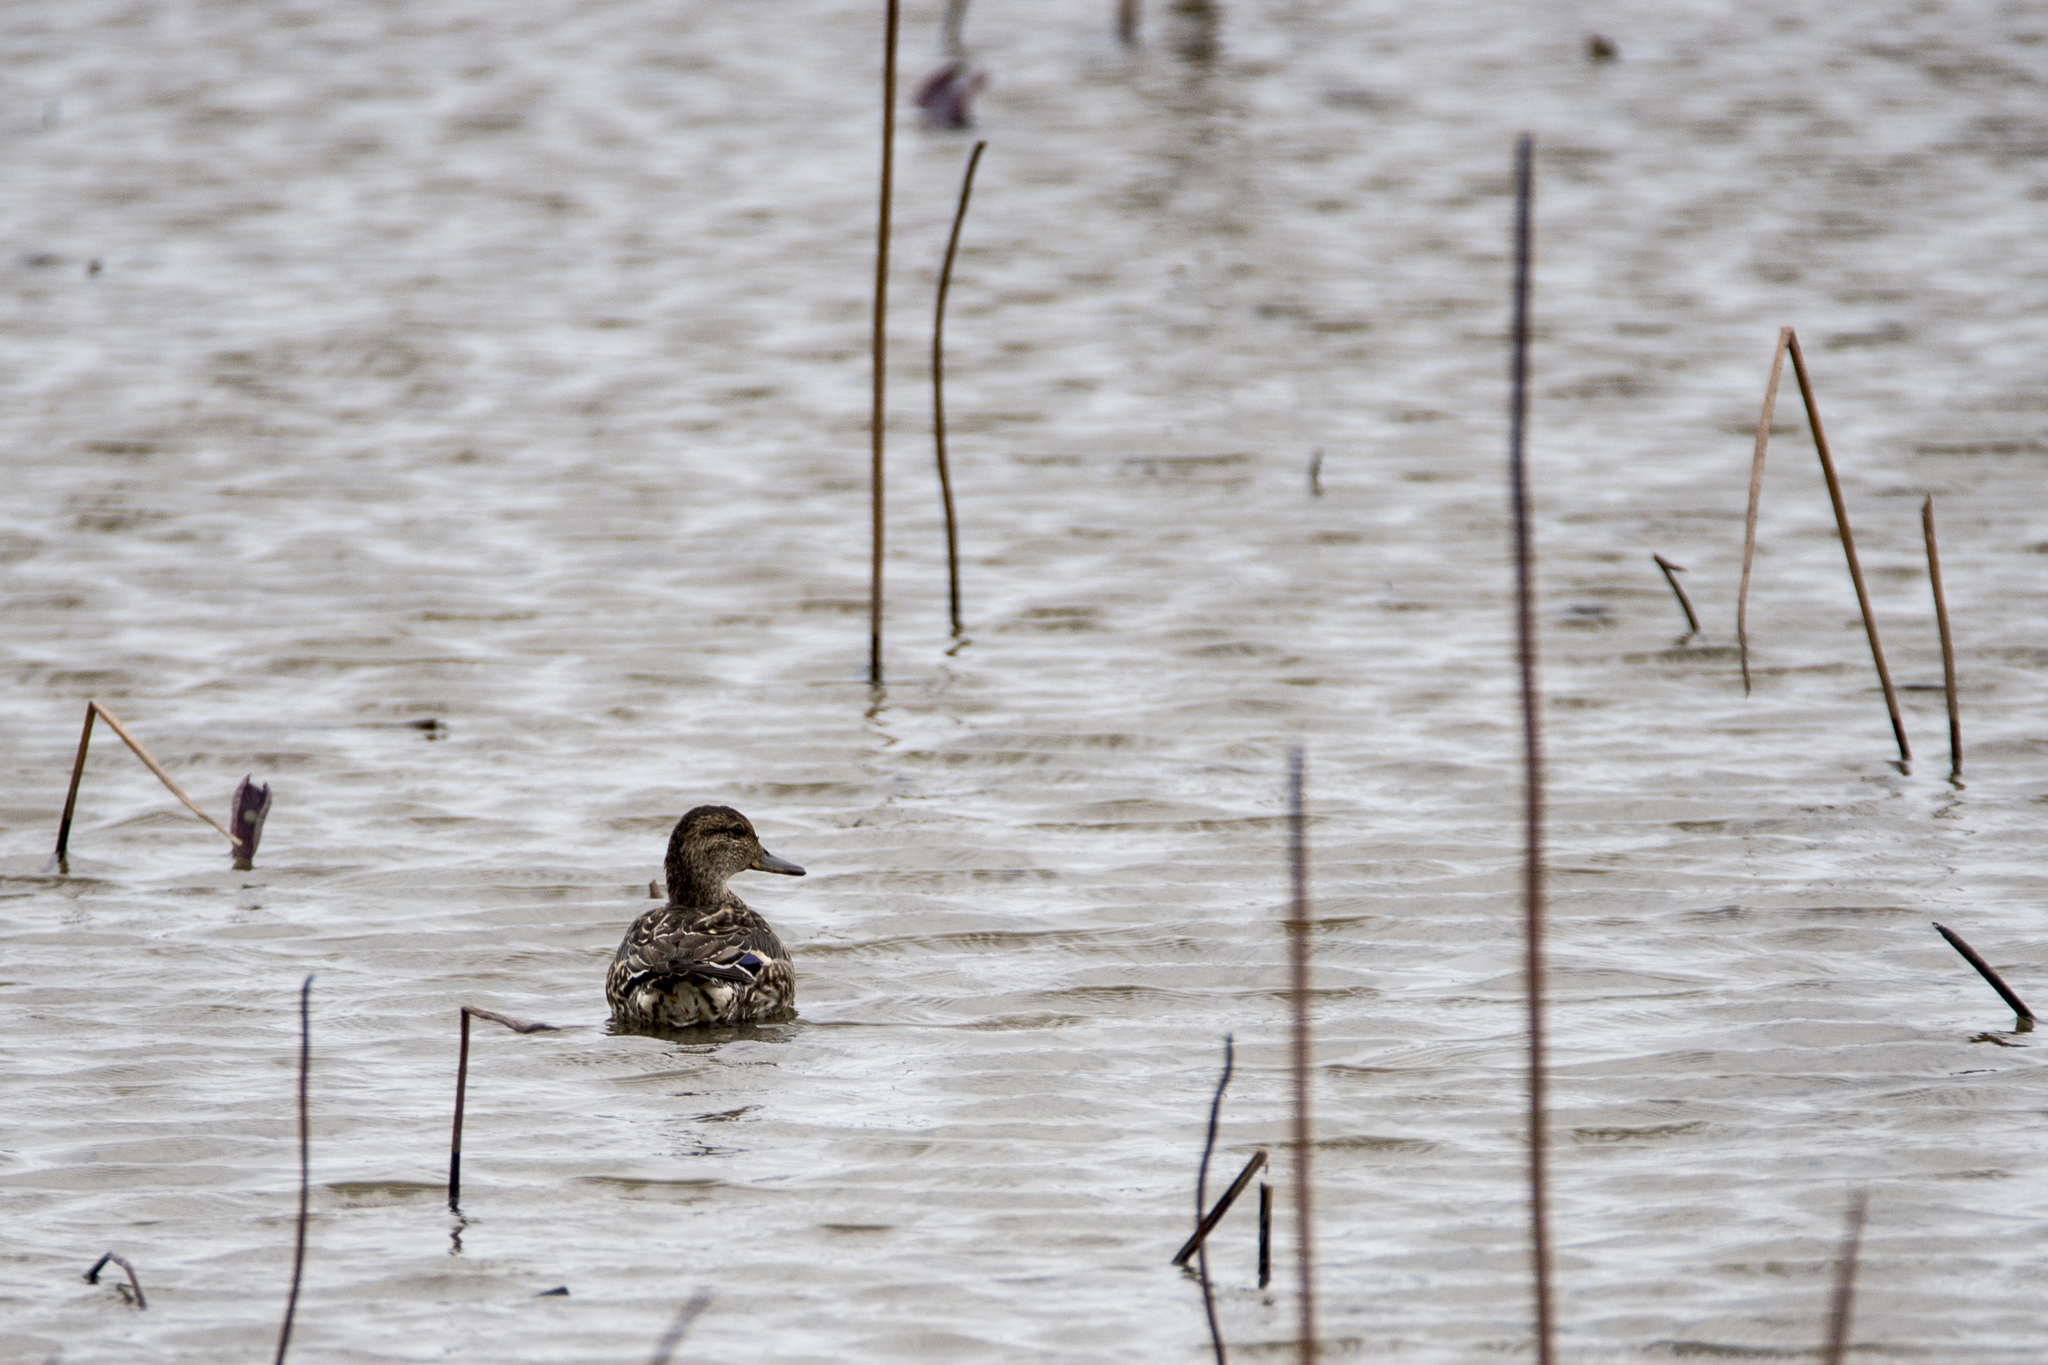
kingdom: Animalia
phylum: Chordata
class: Aves
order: Anseriformes
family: Anatidae
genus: Anas
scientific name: Anas crecca
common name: Eurasian teal
